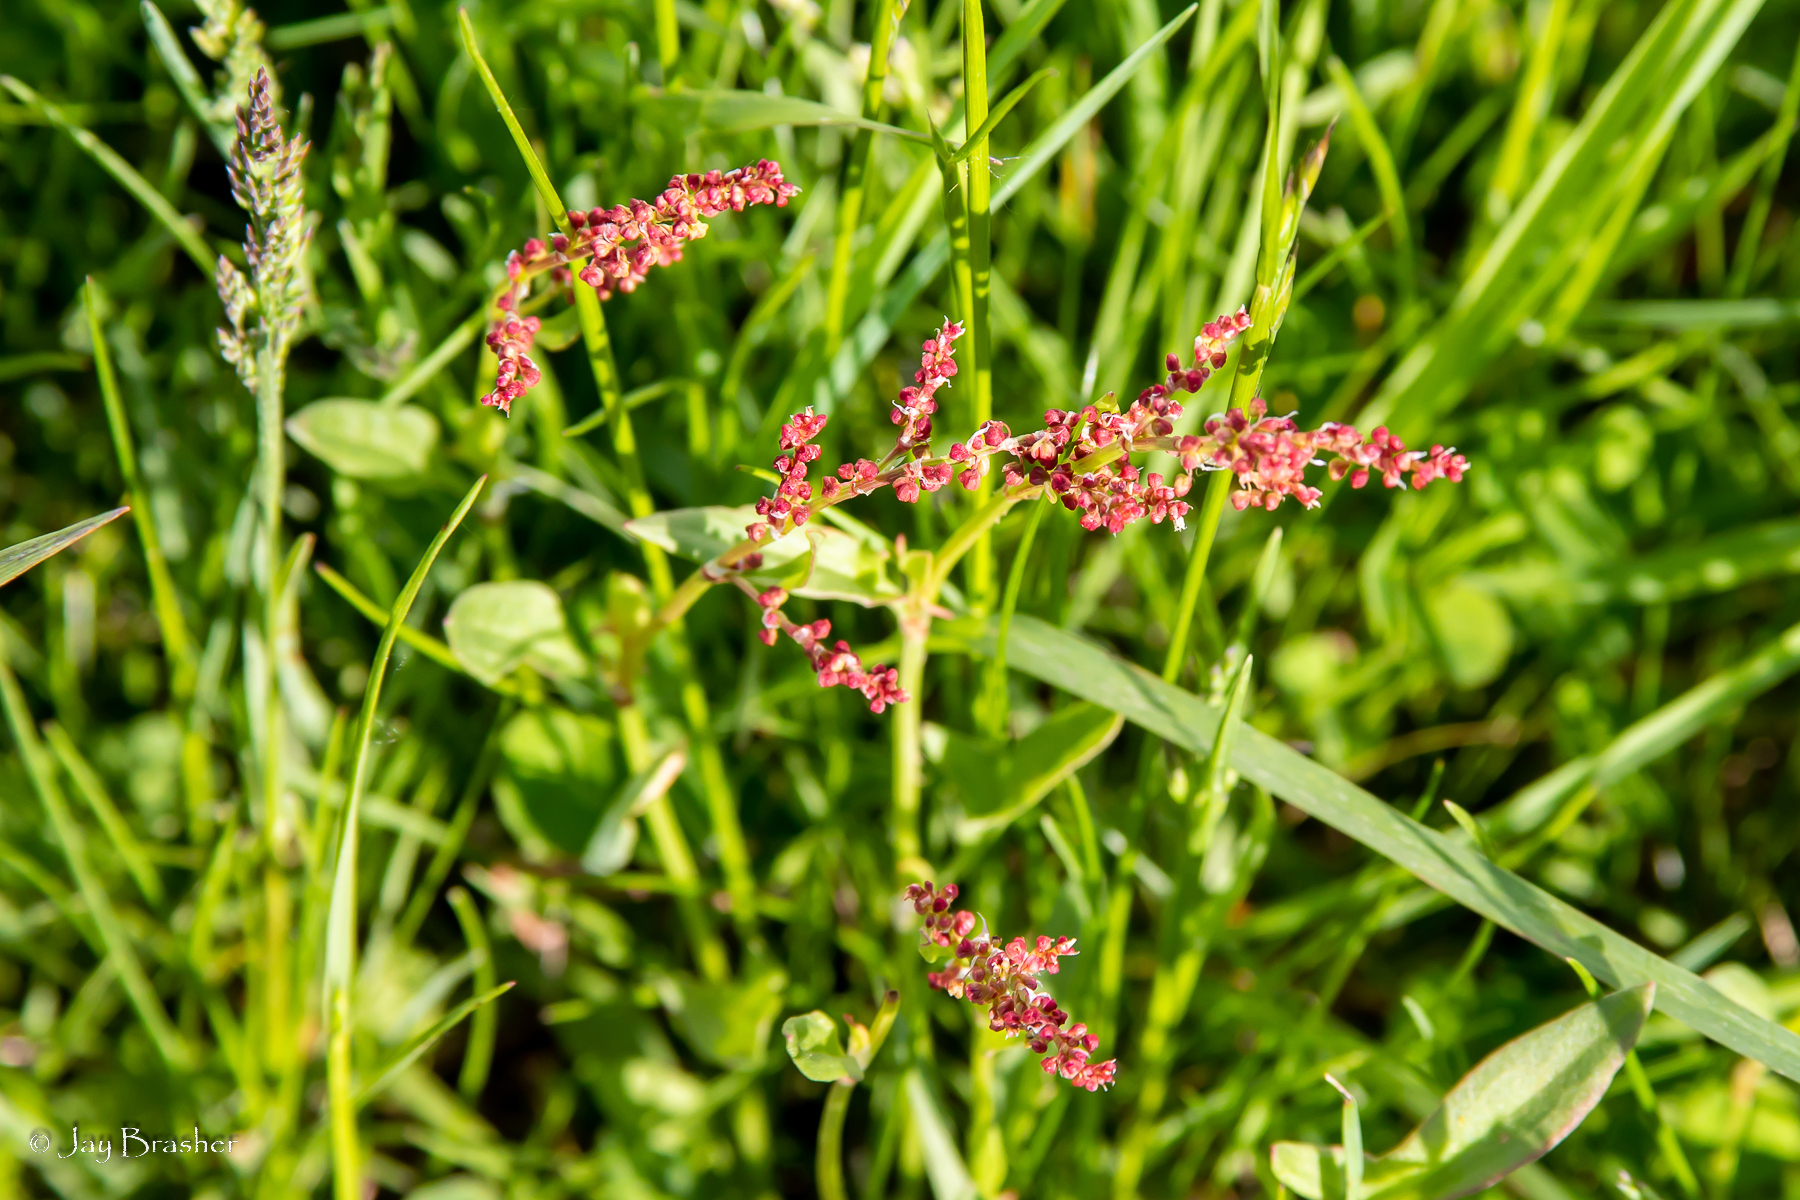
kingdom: Plantae
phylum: Tracheophyta
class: Magnoliopsida
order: Caryophyllales
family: Polygonaceae
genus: Rumex
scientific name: Rumex acetosella
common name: Common sheep sorrel
